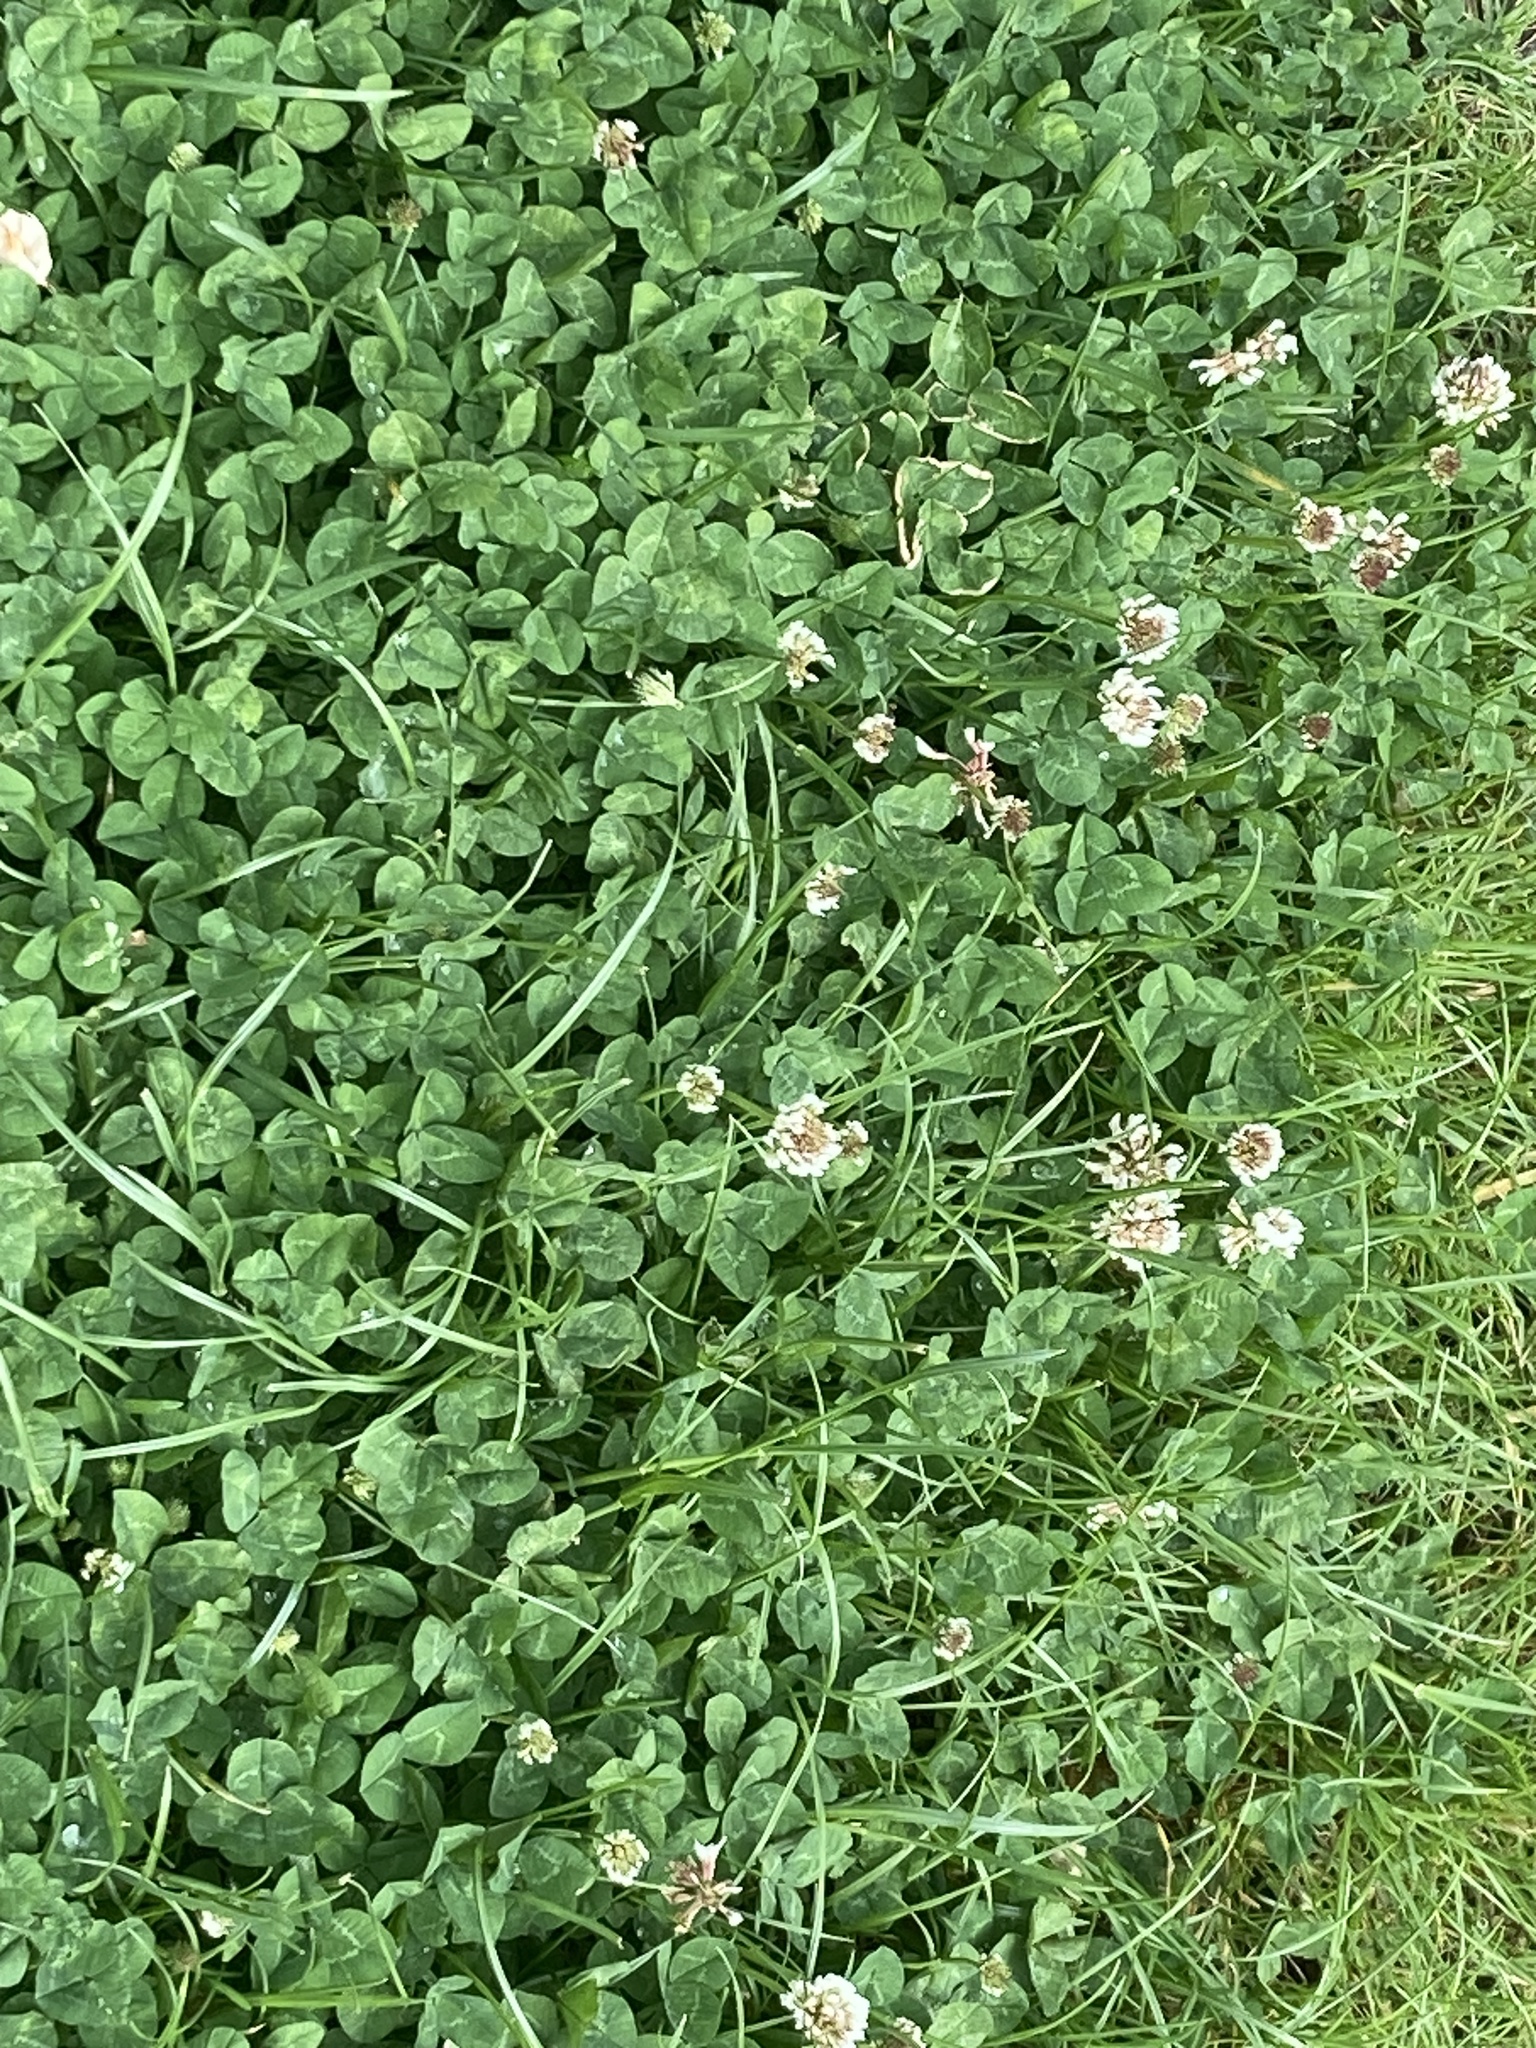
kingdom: Plantae
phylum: Tracheophyta
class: Magnoliopsida
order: Fabales
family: Fabaceae
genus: Trifolium
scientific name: Trifolium repens
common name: White clover
